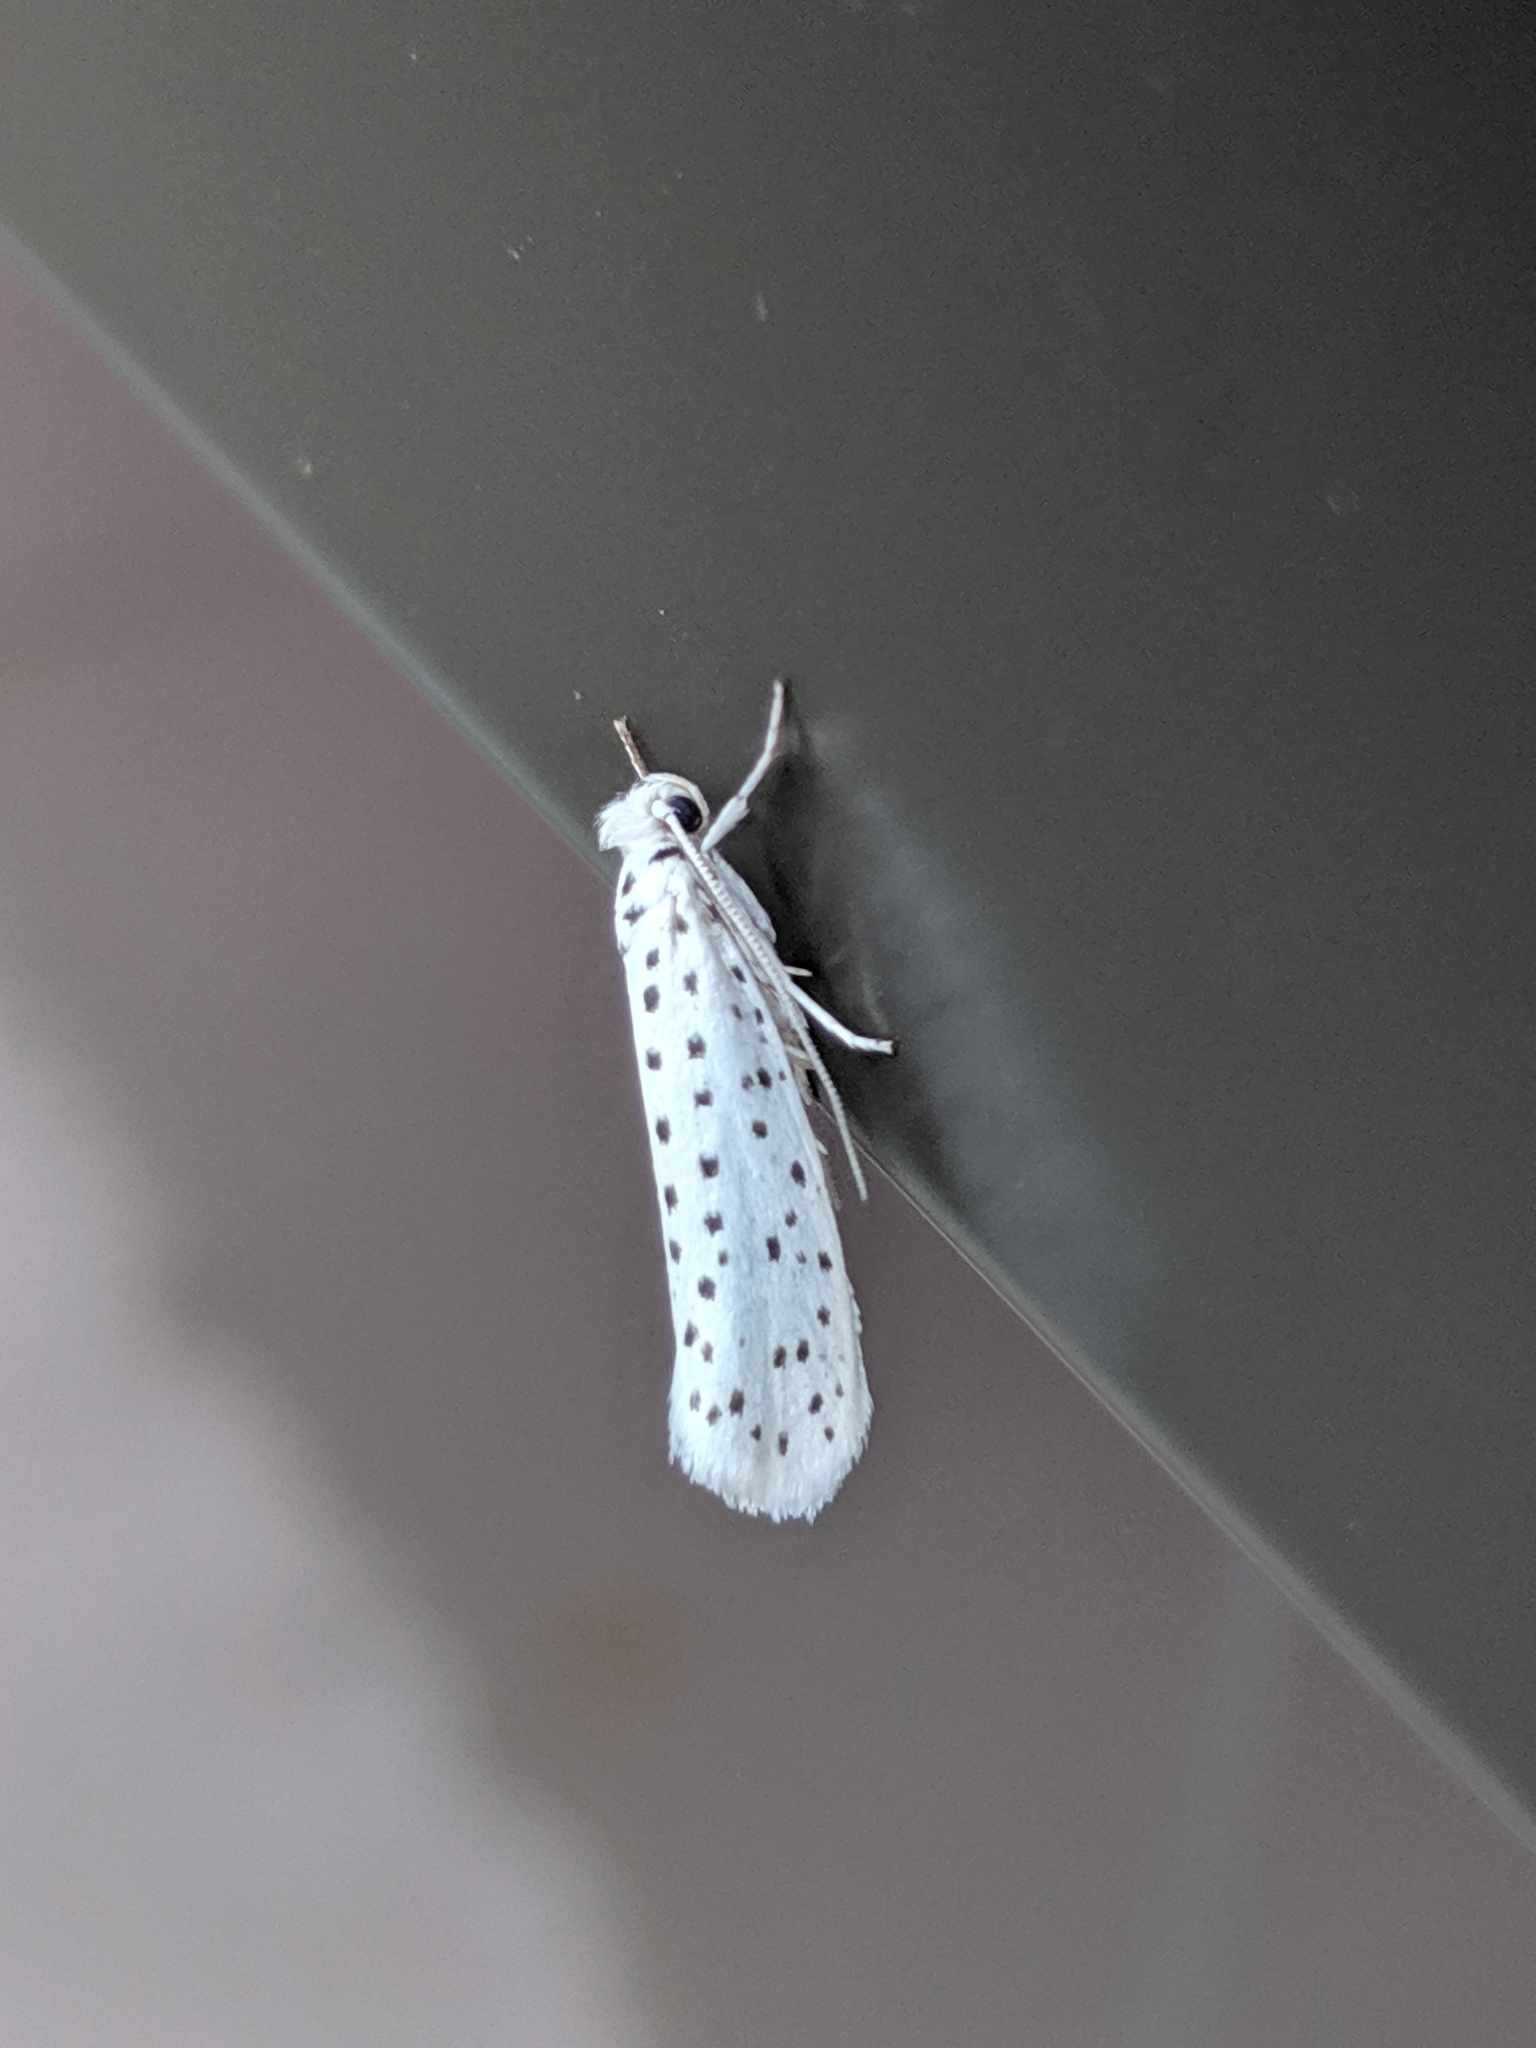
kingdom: Animalia
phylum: Arthropoda
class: Insecta
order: Lepidoptera
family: Yponomeutidae
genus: Yponomeuta
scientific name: Yponomeuta multipunctella
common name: American ermine moth
